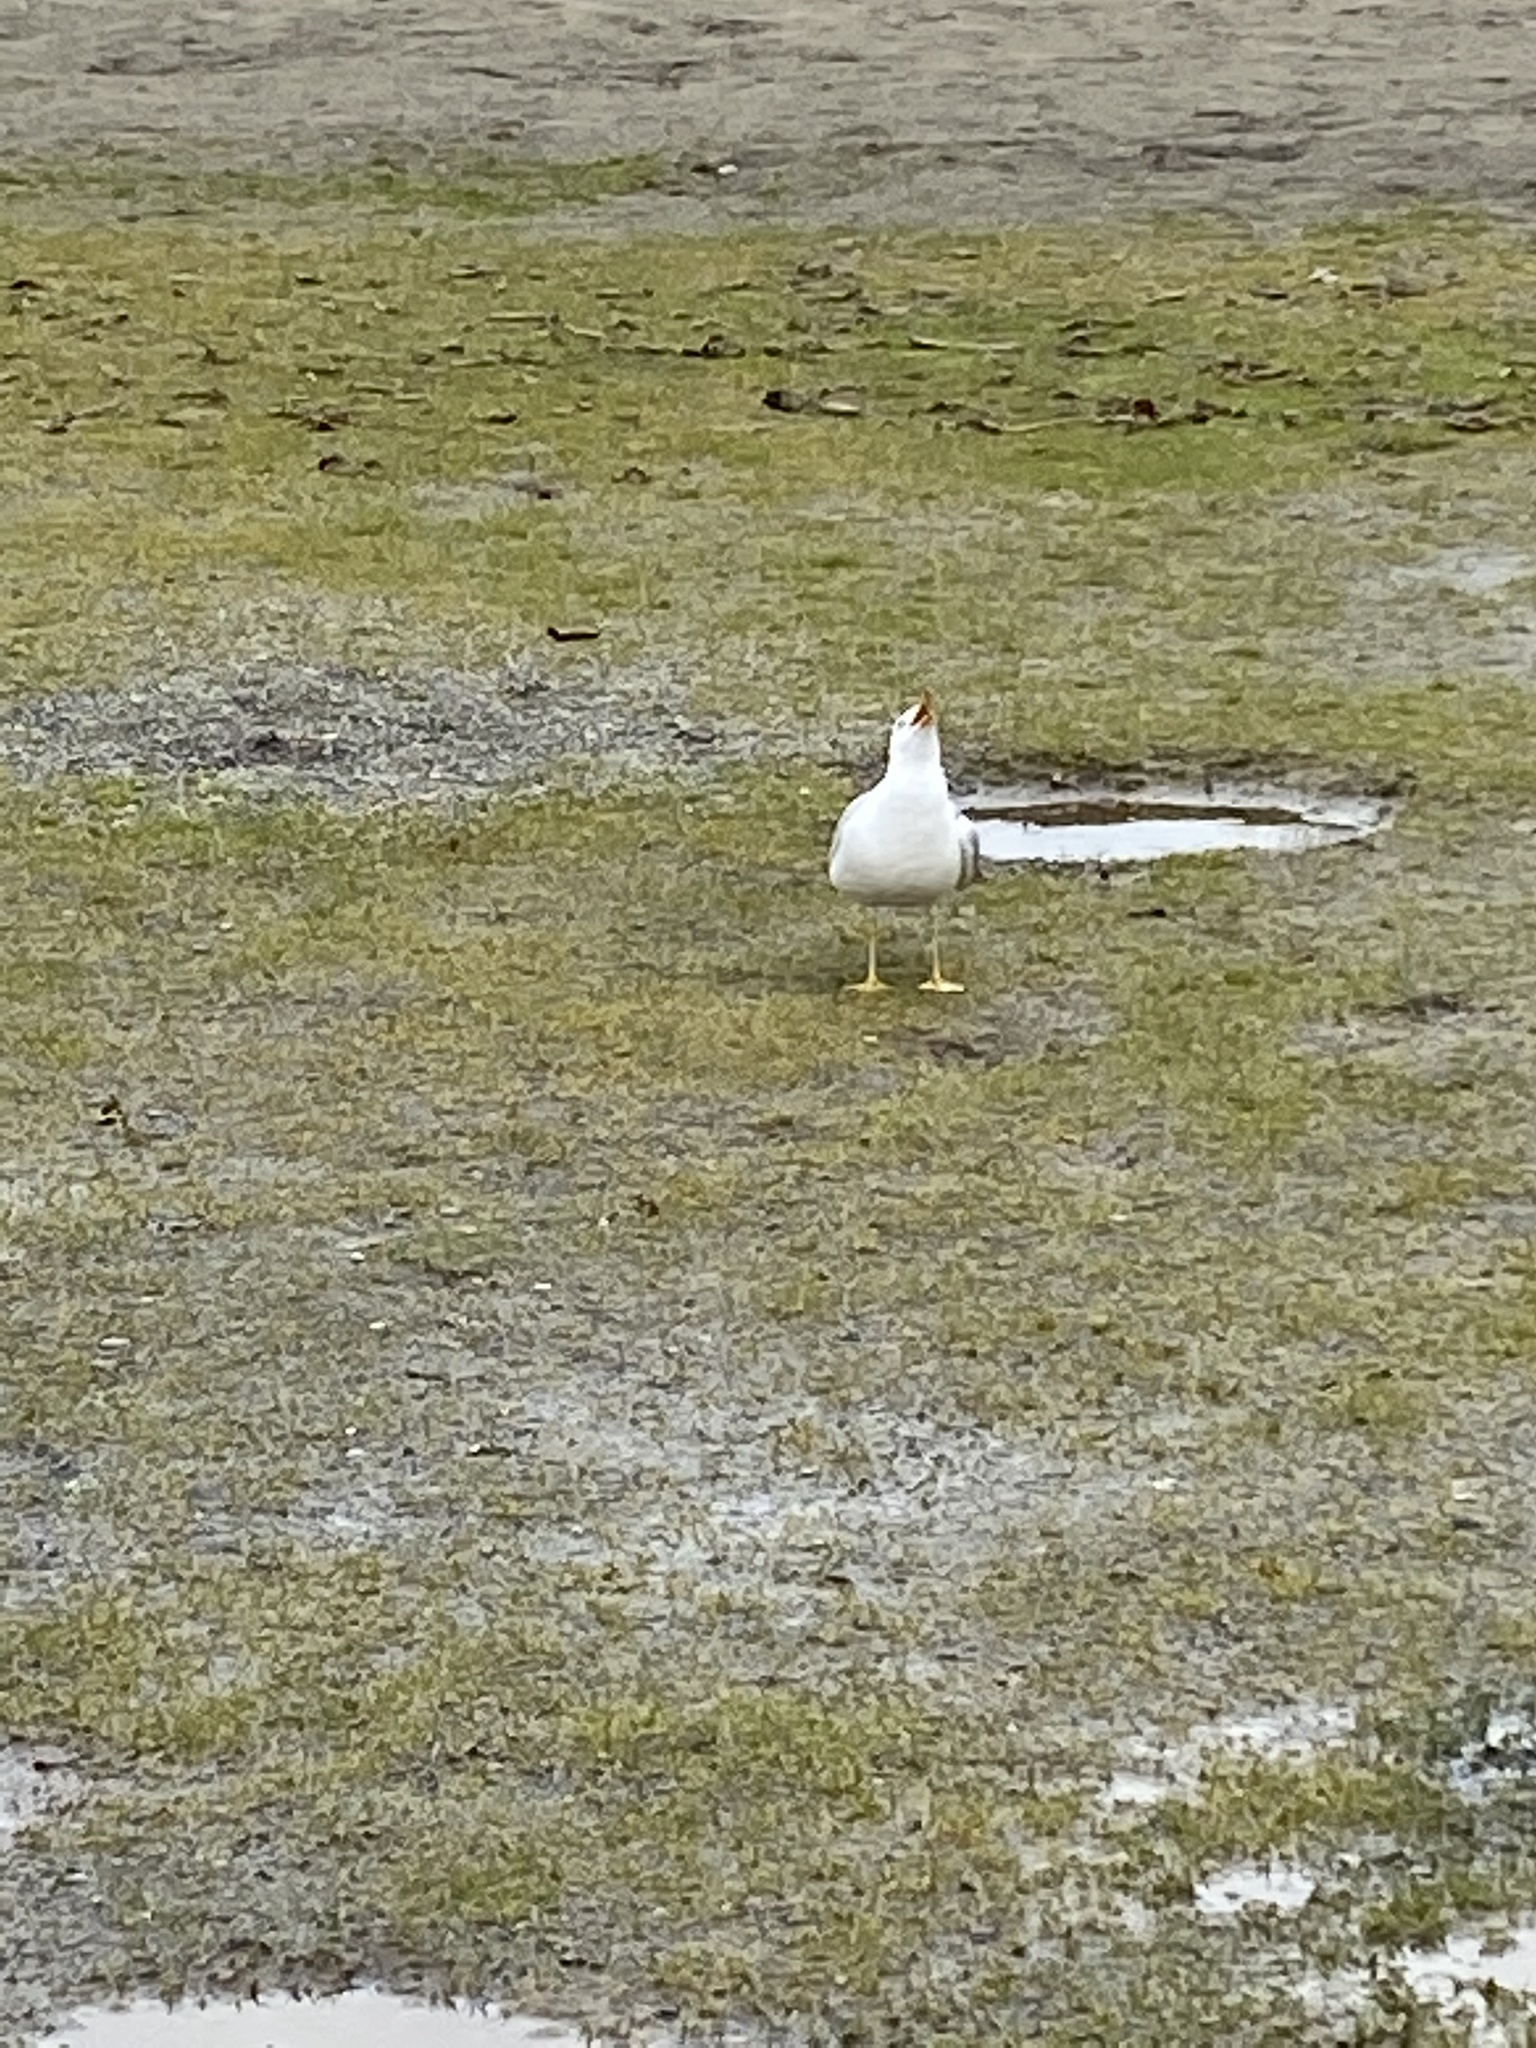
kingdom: Animalia
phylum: Chordata
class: Aves
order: Charadriiformes
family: Laridae
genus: Larus
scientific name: Larus brachyrhynchus
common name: Short-billed gull
